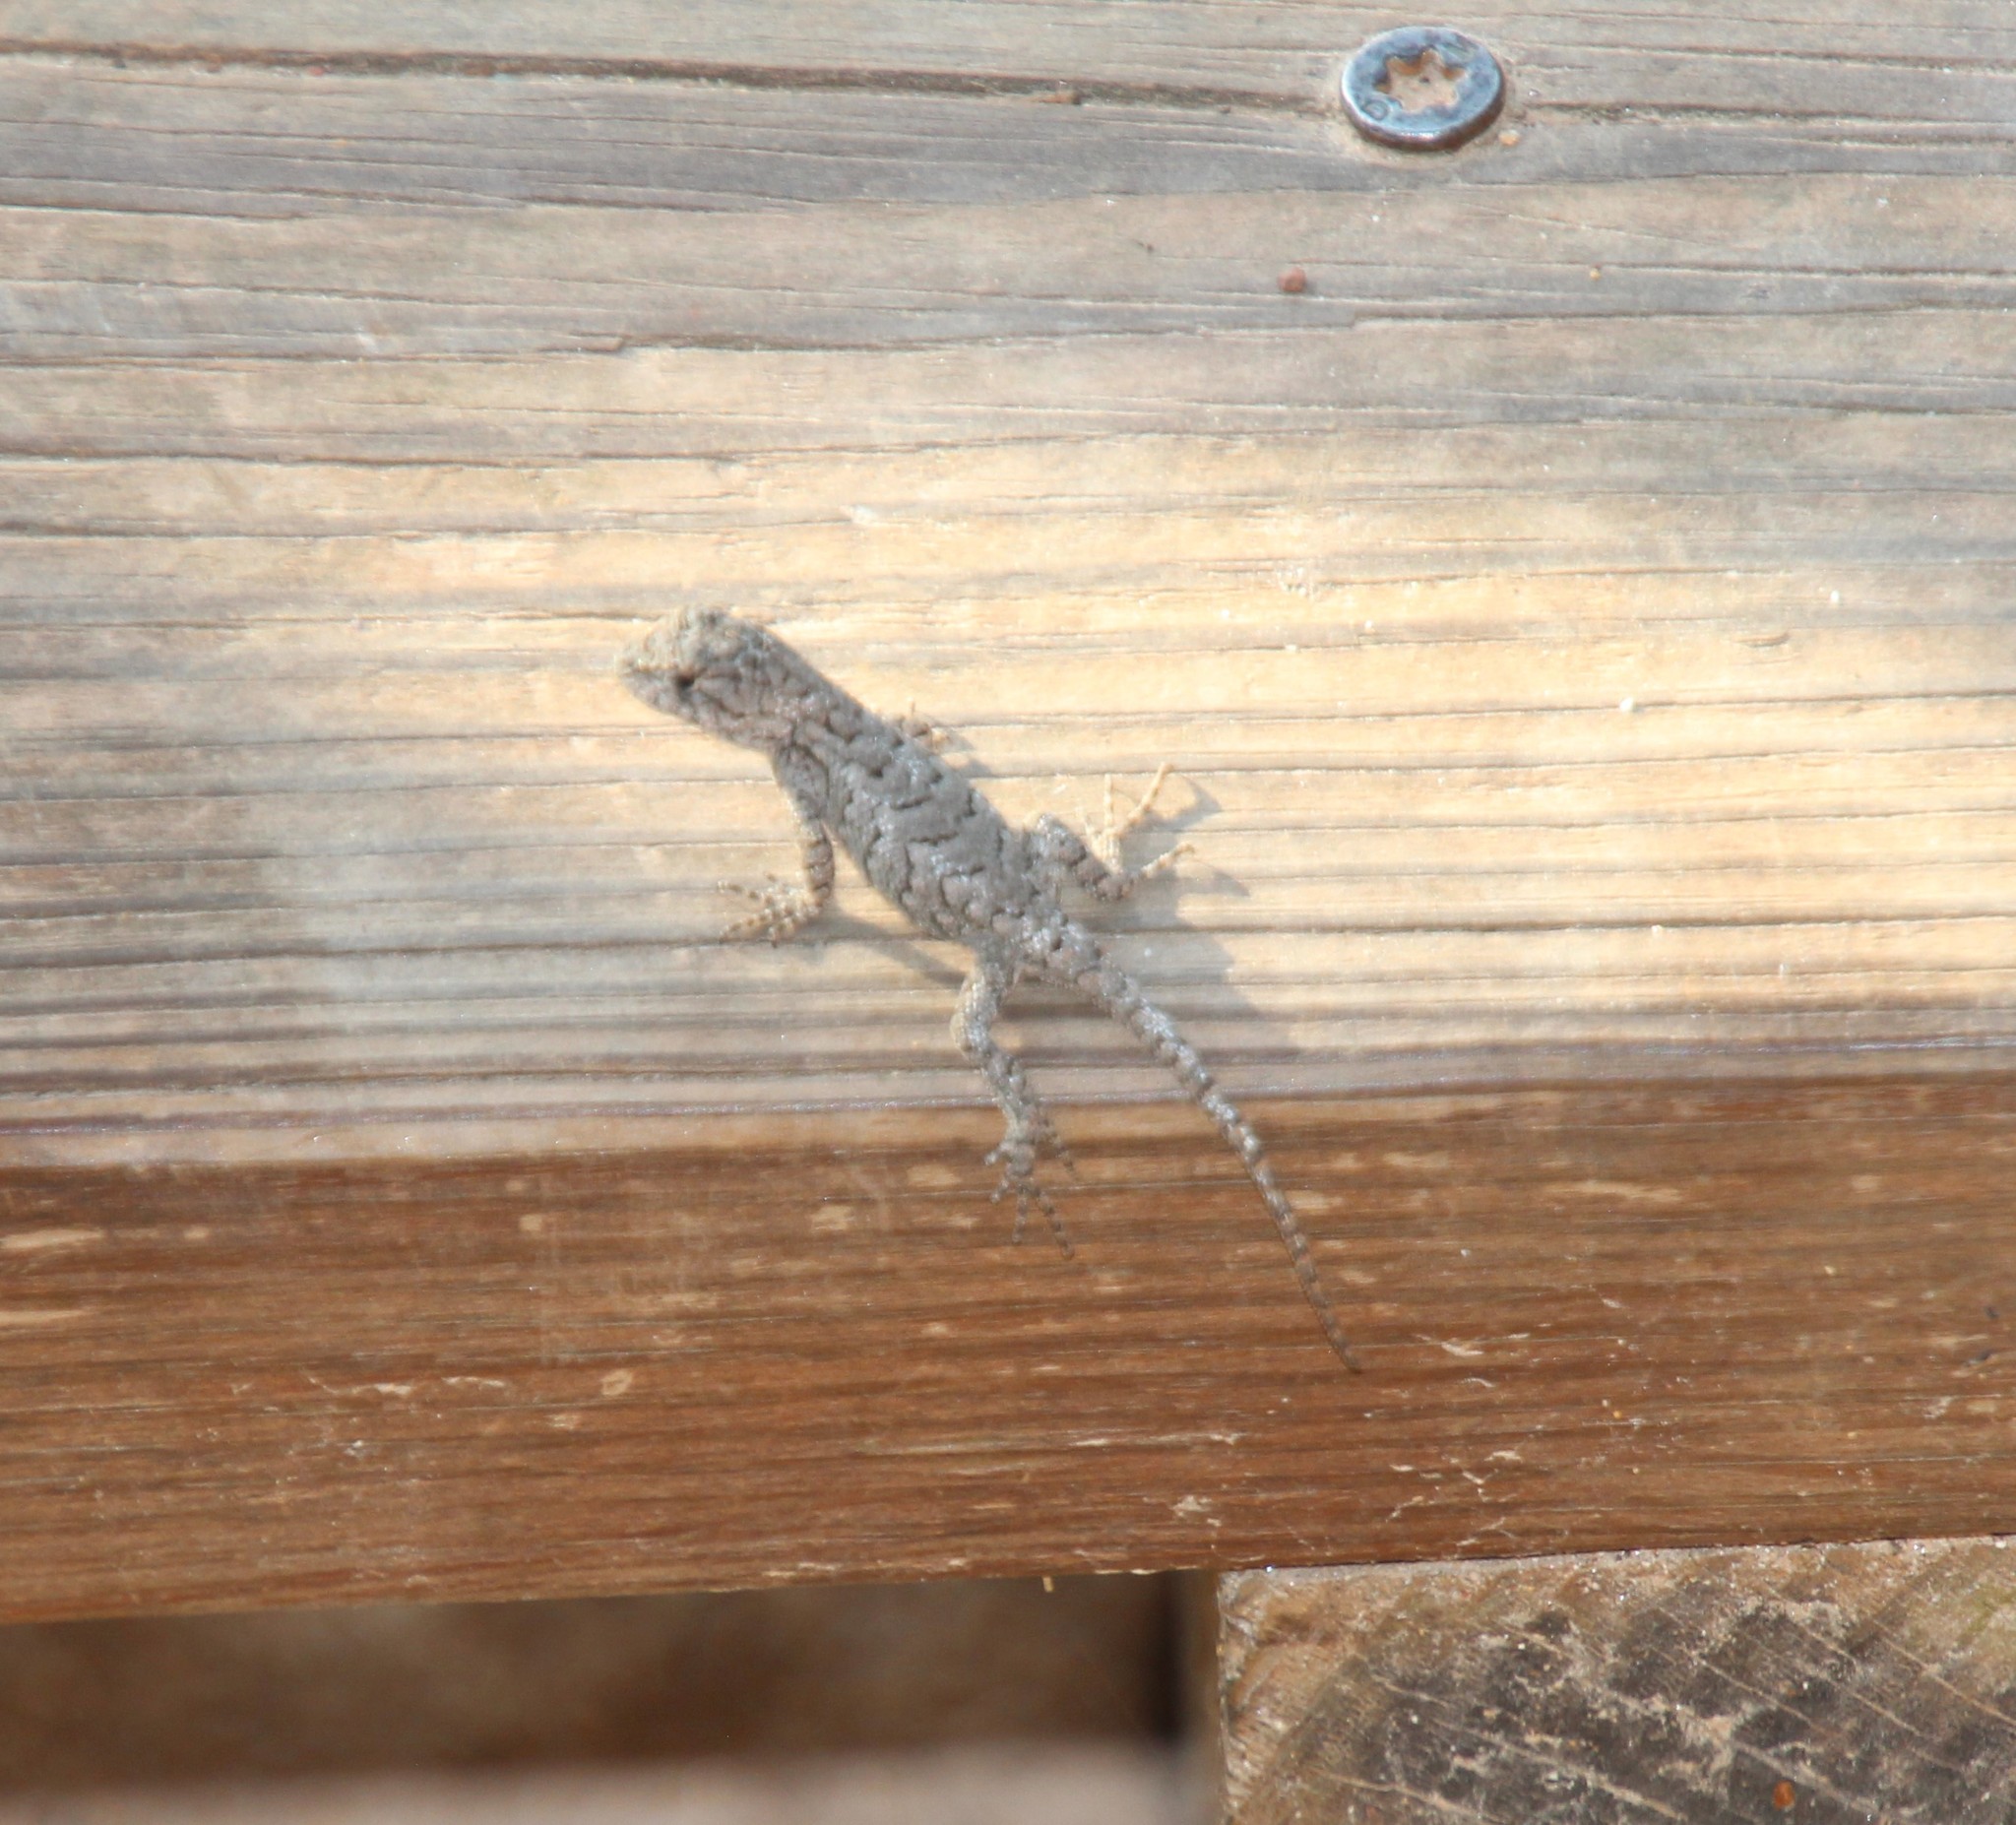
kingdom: Animalia
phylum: Chordata
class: Squamata
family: Phrynosomatidae
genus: Sceloporus
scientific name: Sceloporus undulatus
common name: Eastern fence lizard
